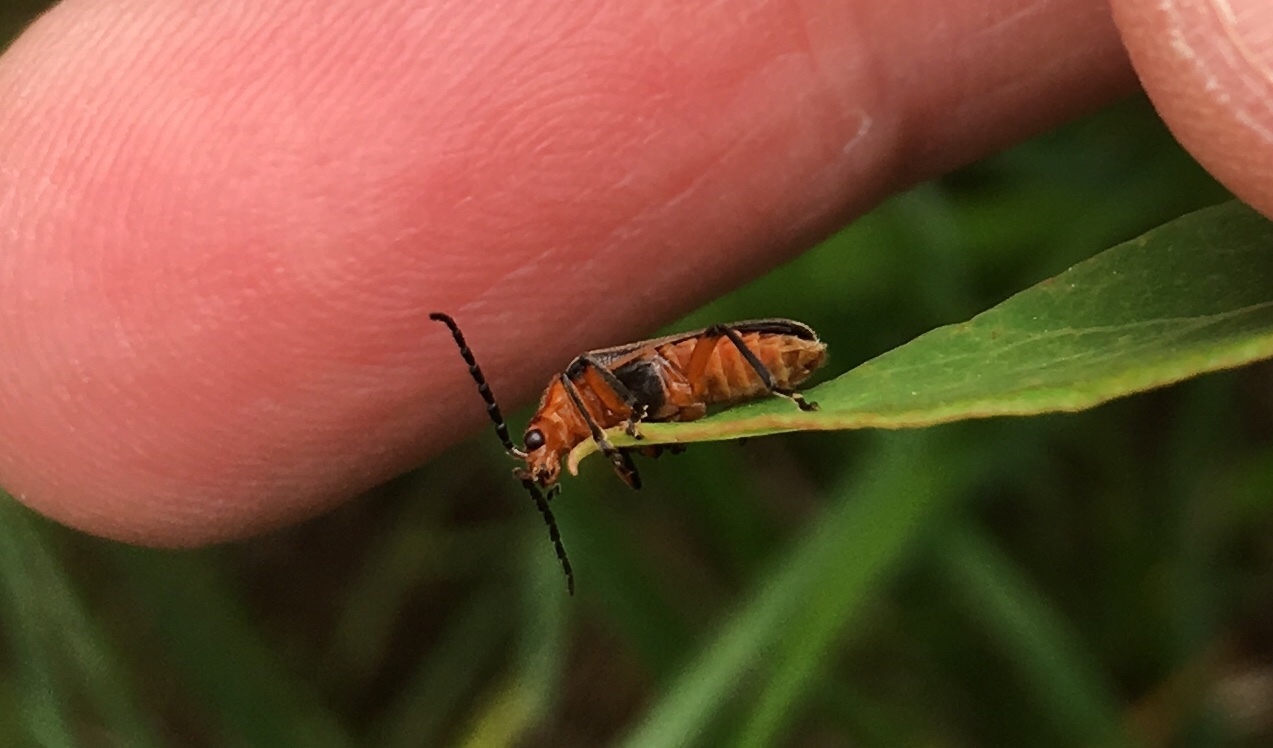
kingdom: Animalia
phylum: Arthropoda
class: Insecta
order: Coleoptera
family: Cantharidae
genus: Atalantycha
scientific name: Atalantycha bilineata
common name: Two-lined leatherwing
